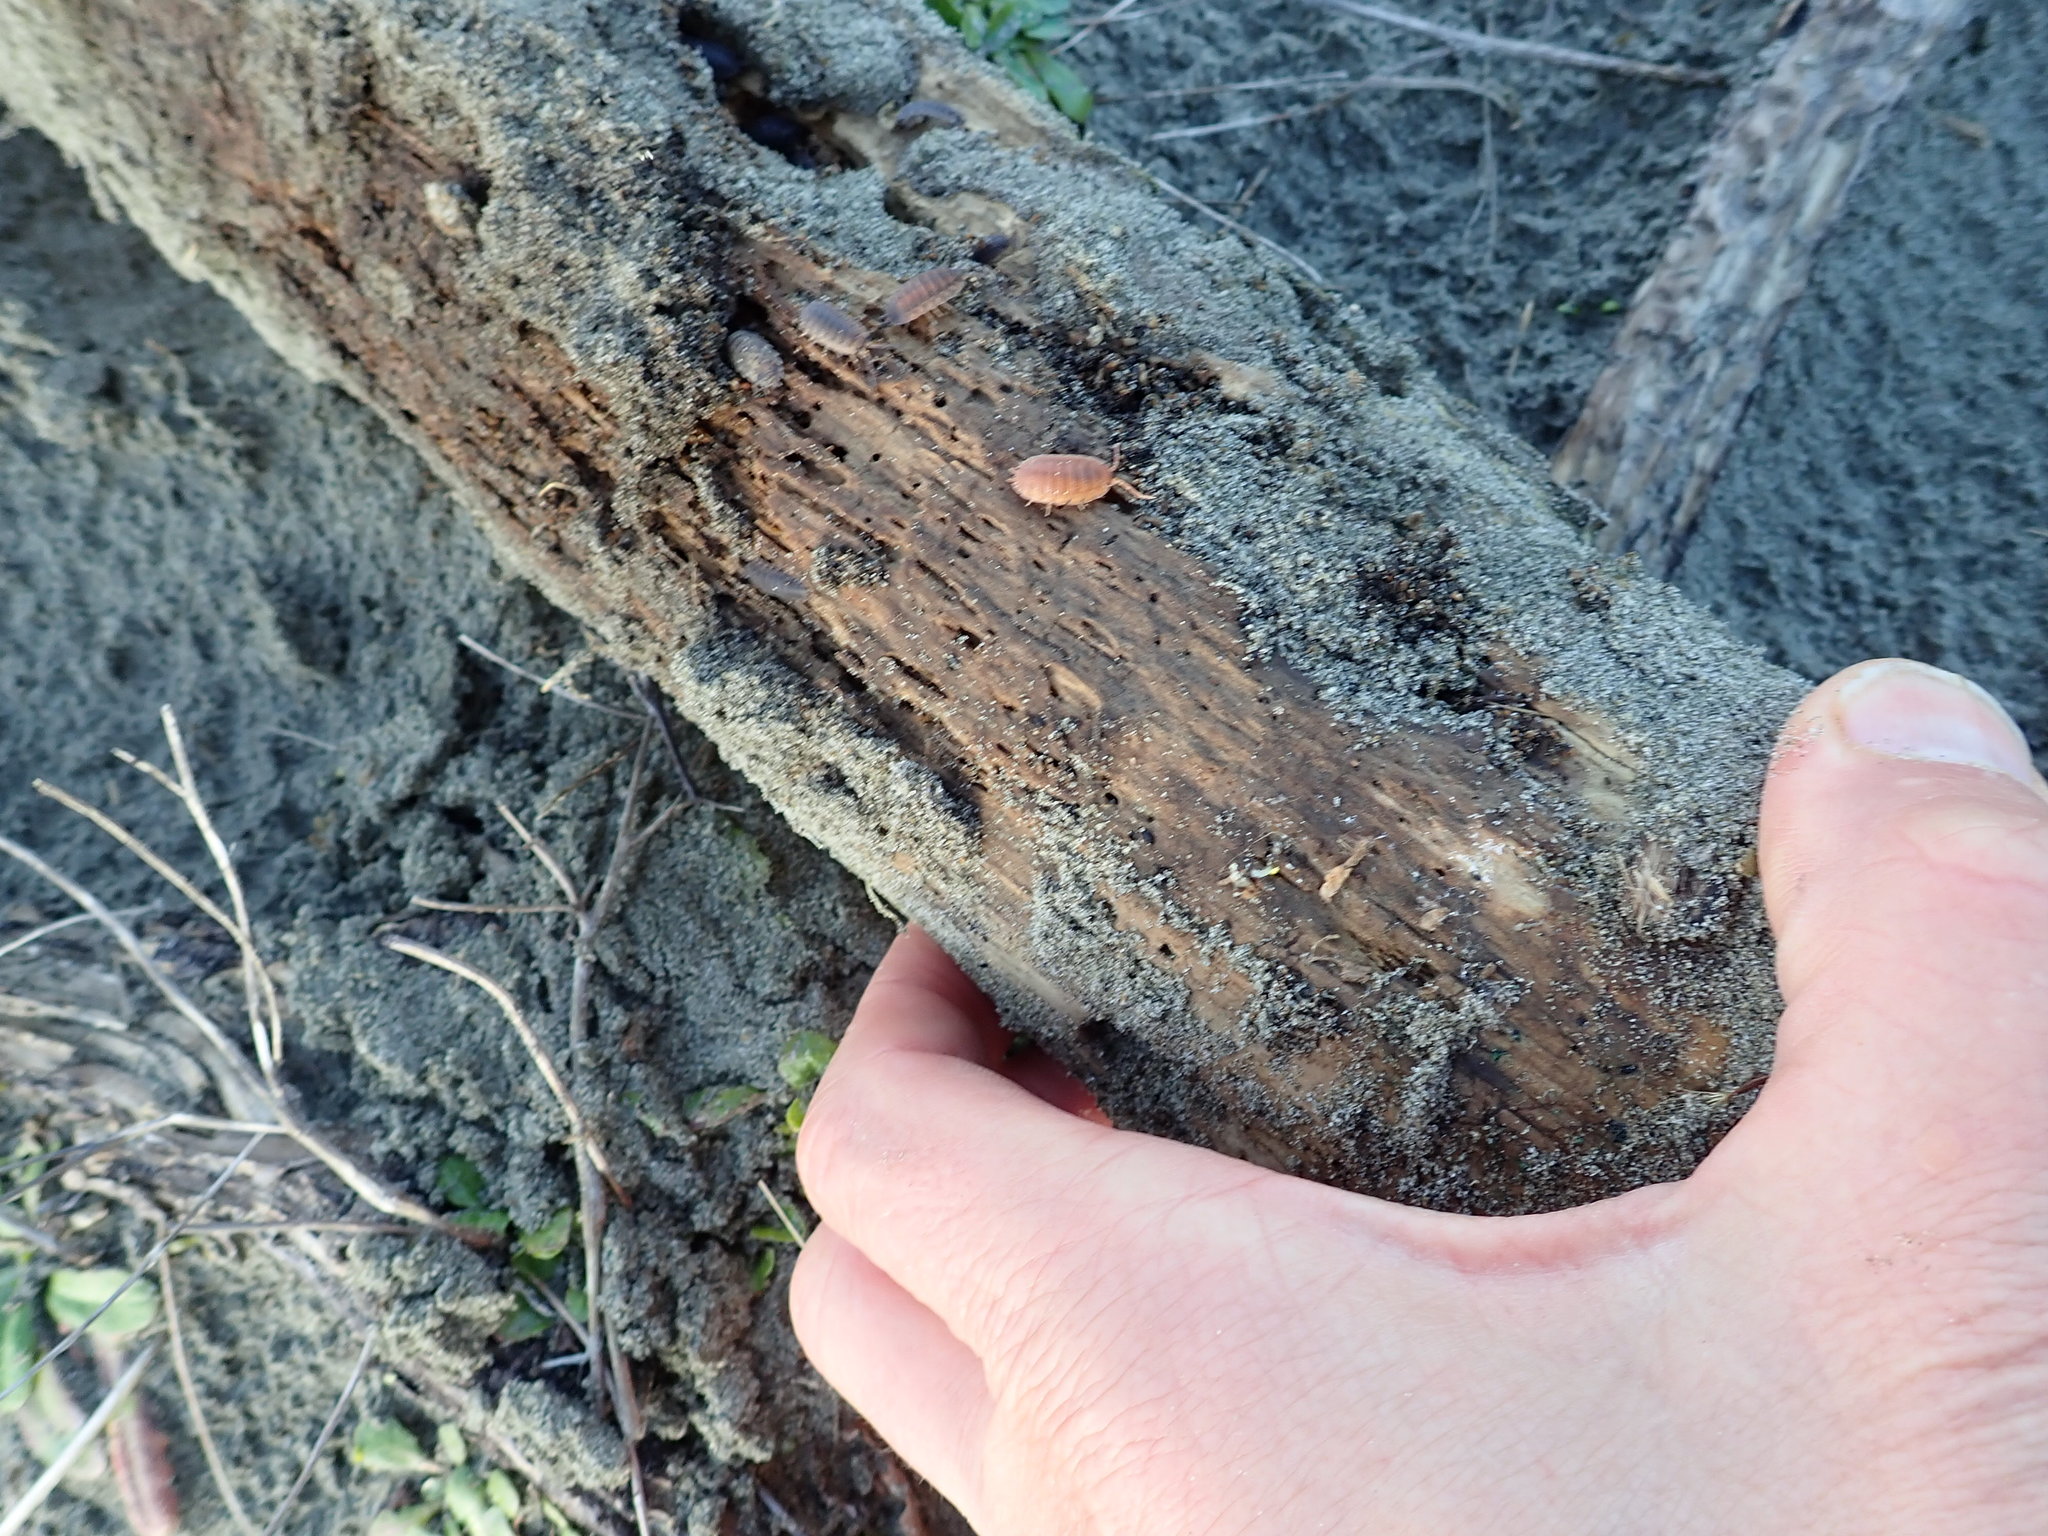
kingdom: Animalia
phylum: Arthropoda
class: Malacostraca
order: Isopoda
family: Porcellionidae
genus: Porcellio
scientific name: Porcellio scaber
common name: Common rough woodlouse
